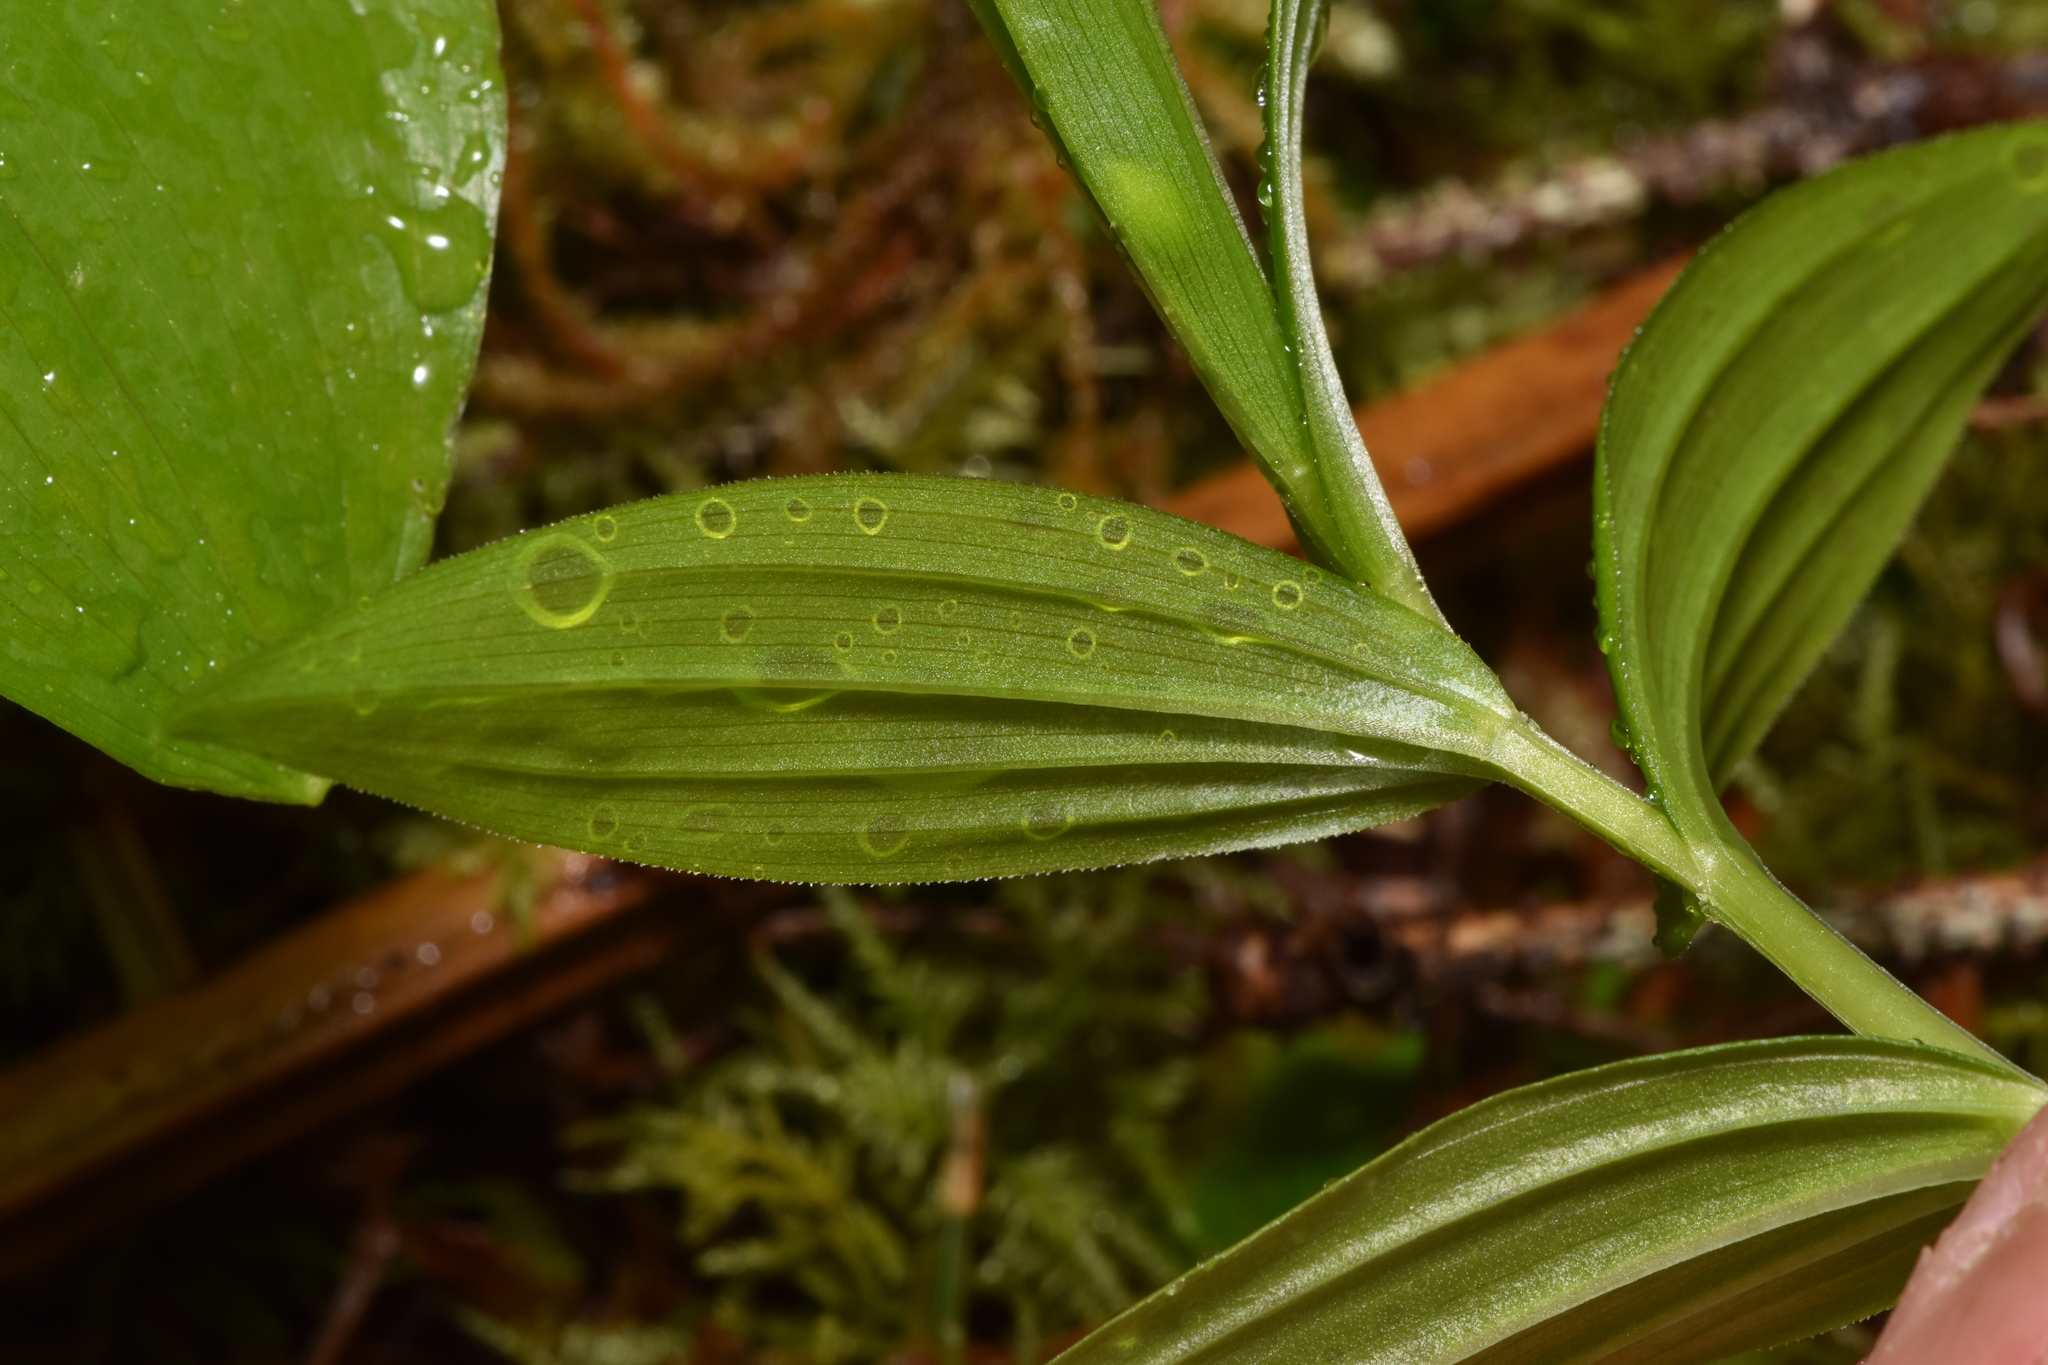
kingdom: Plantae
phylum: Tracheophyta
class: Liliopsida
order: Liliales
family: Liliaceae
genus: Streptopus
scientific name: Streptopus lanceolatus
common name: Rose mandarin
